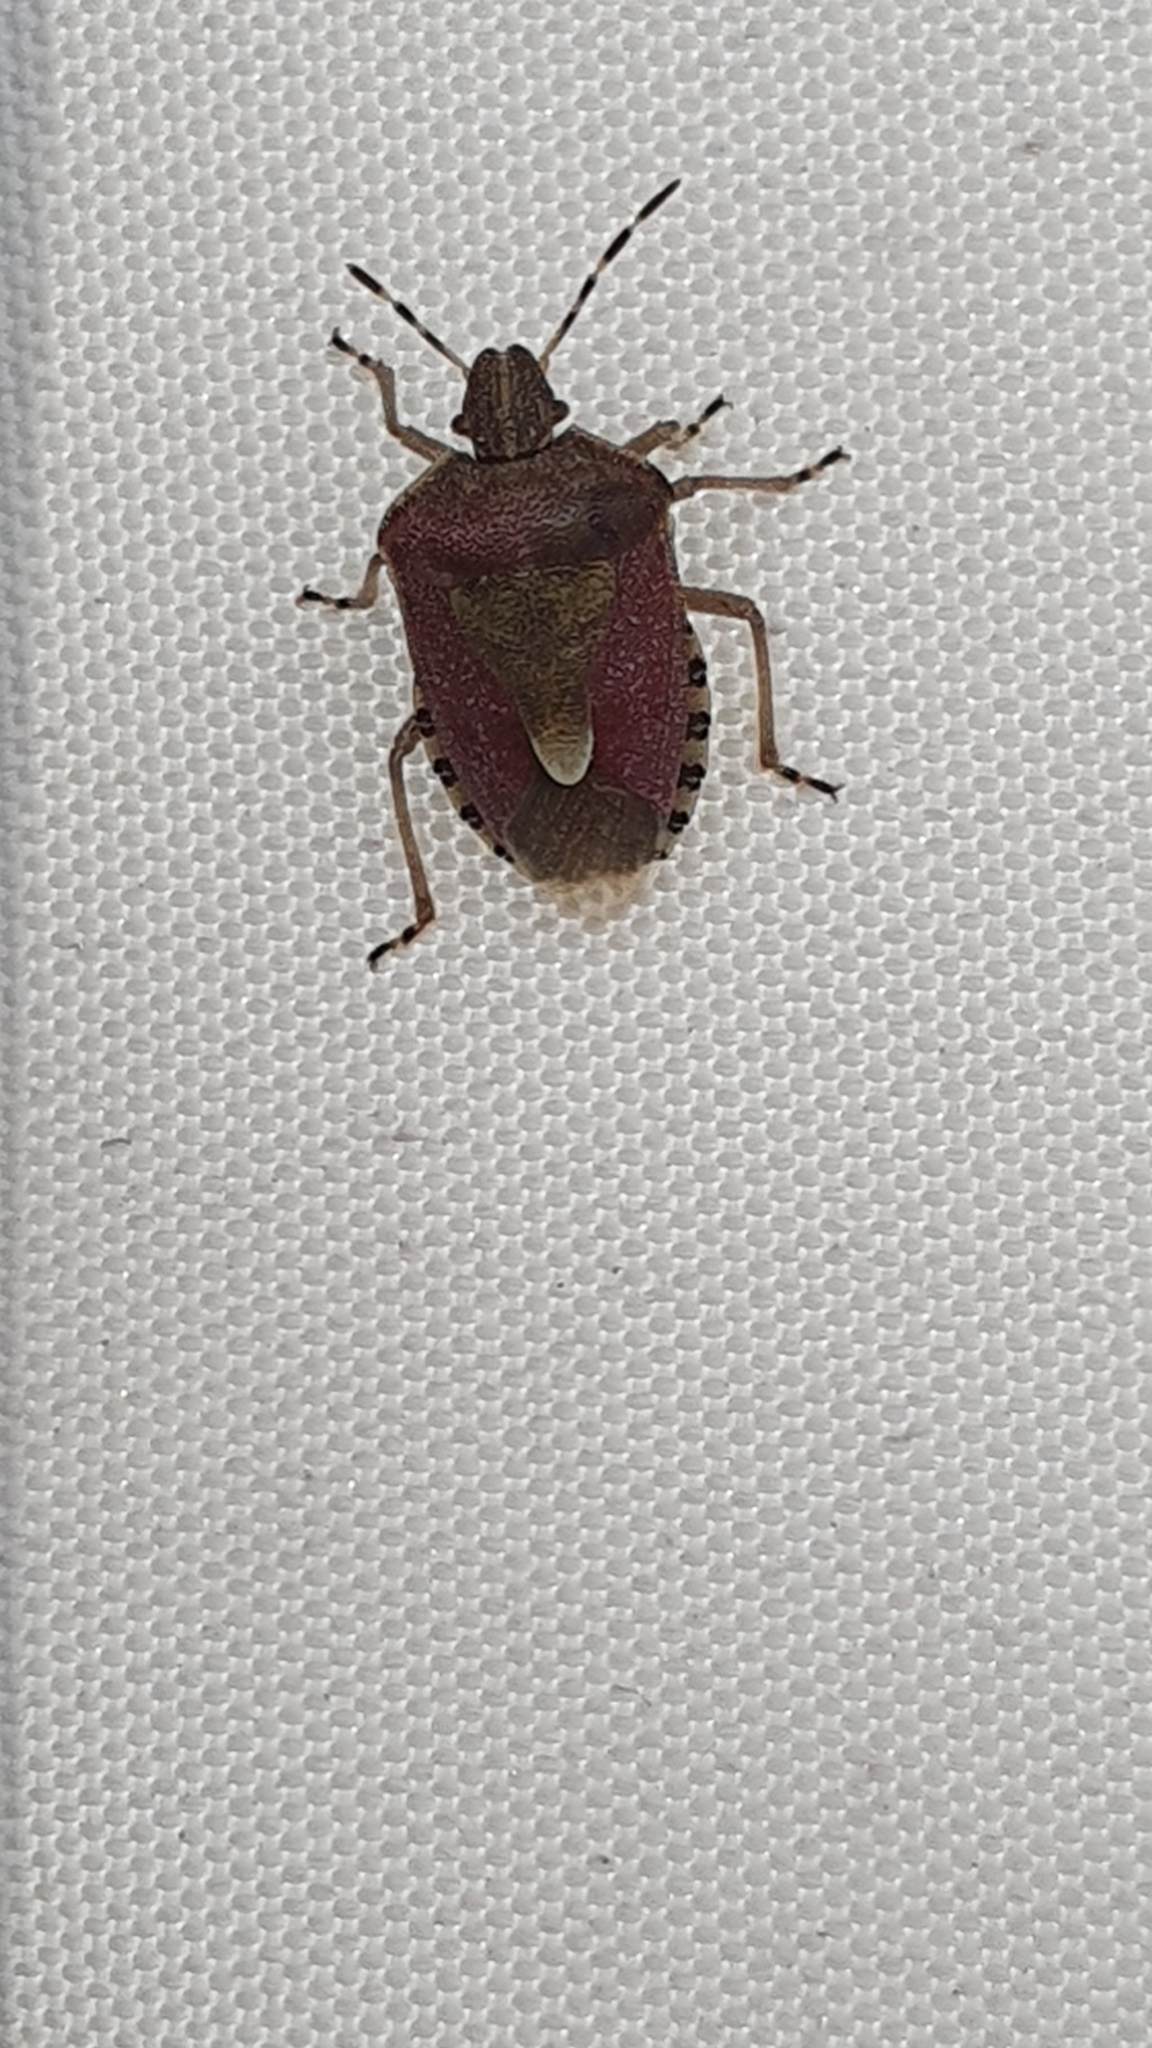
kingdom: Animalia
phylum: Arthropoda
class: Insecta
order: Hemiptera
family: Pentatomidae
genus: Dolycoris
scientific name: Dolycoris baccarum
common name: Sloe bug
